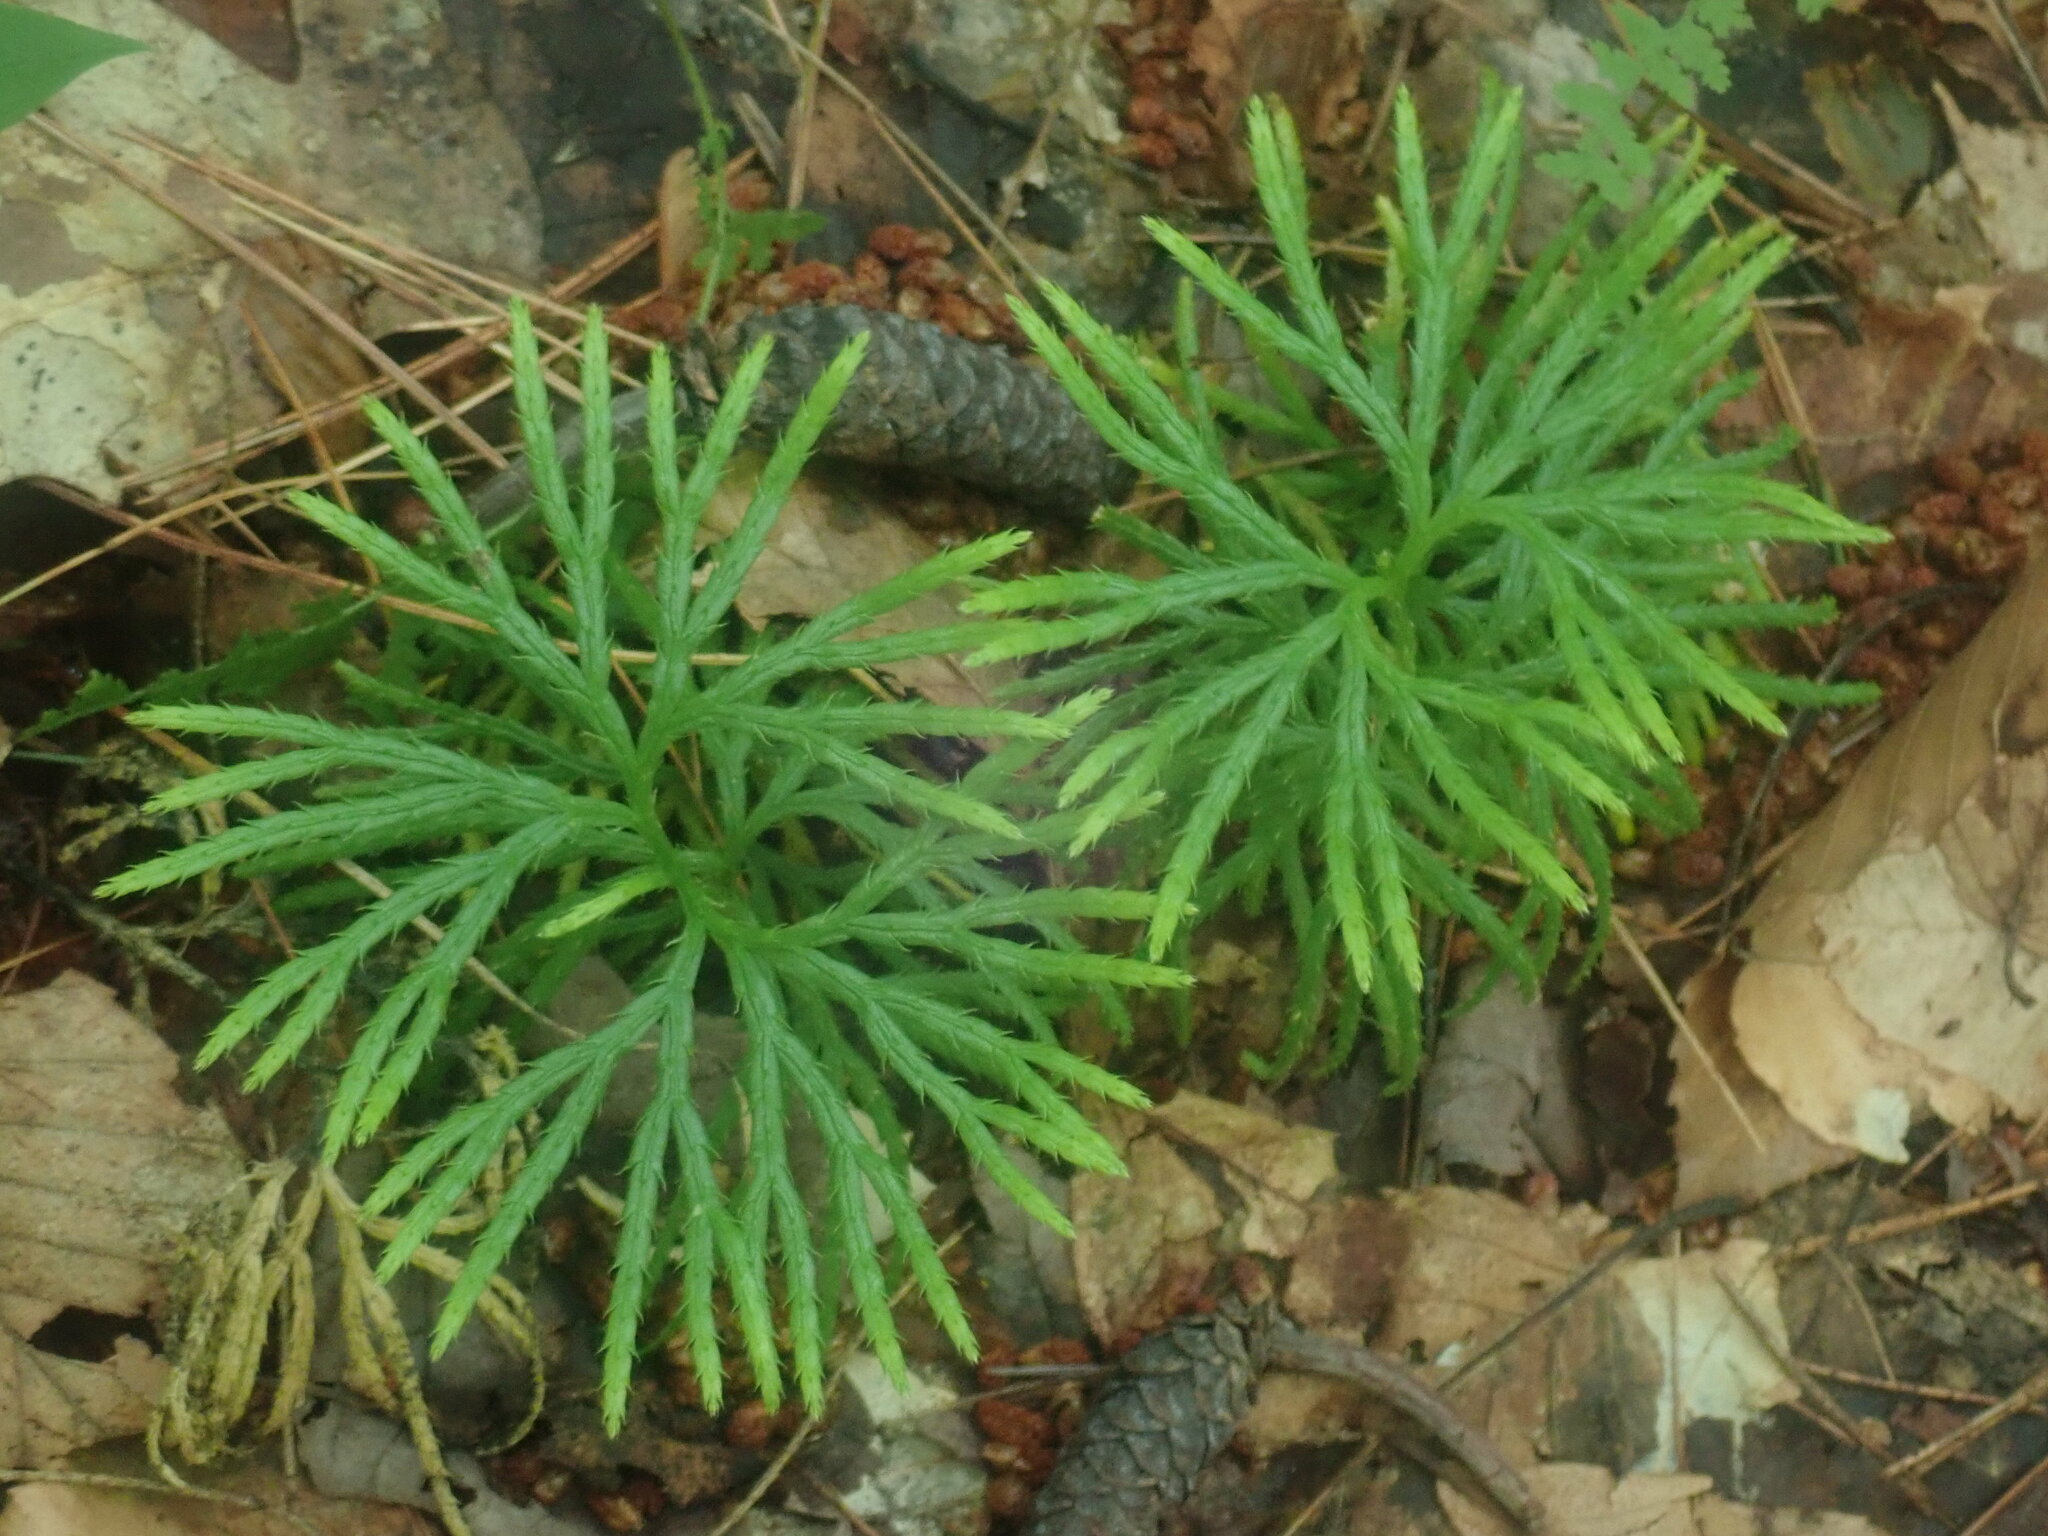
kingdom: Plantae
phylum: Tracheophyta
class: Lycopodiopsida
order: Lycopodiales
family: Lycopodiaceae
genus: Diphasiastrum
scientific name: Diphasiastrum digitatum
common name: Southern running-pine
